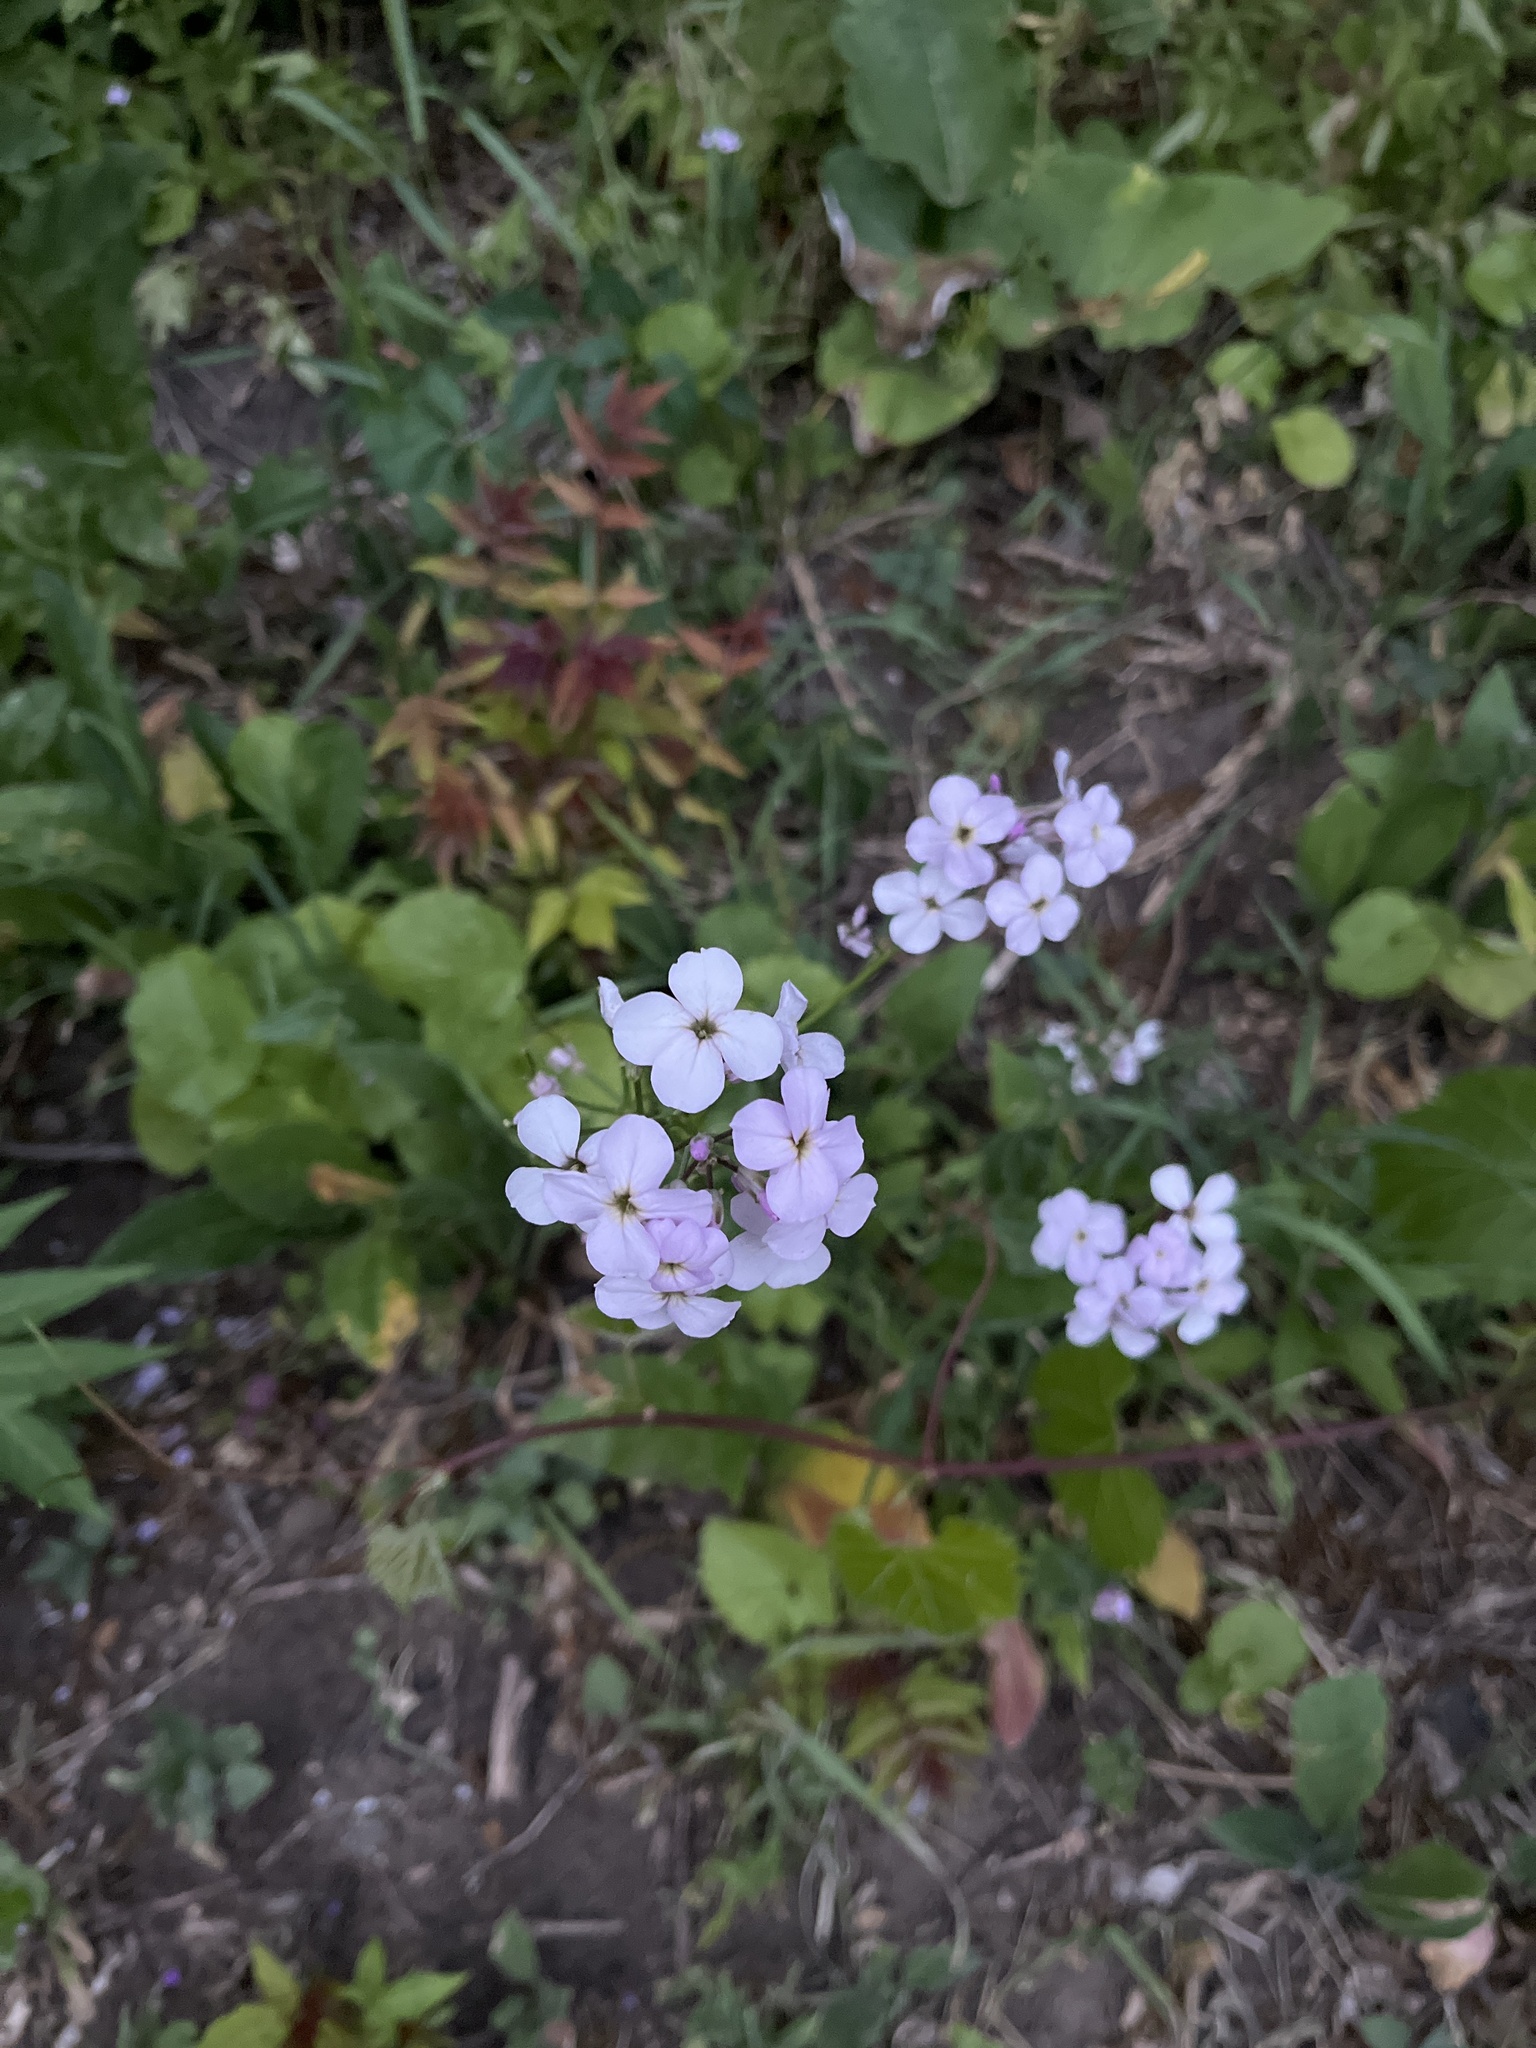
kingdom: Plantae
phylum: Tracheophyta
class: Magnoliopsida
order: Brassicales
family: Brassicaceae
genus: Hesperis
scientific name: Hesperis matronalis
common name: Dame's-violet
